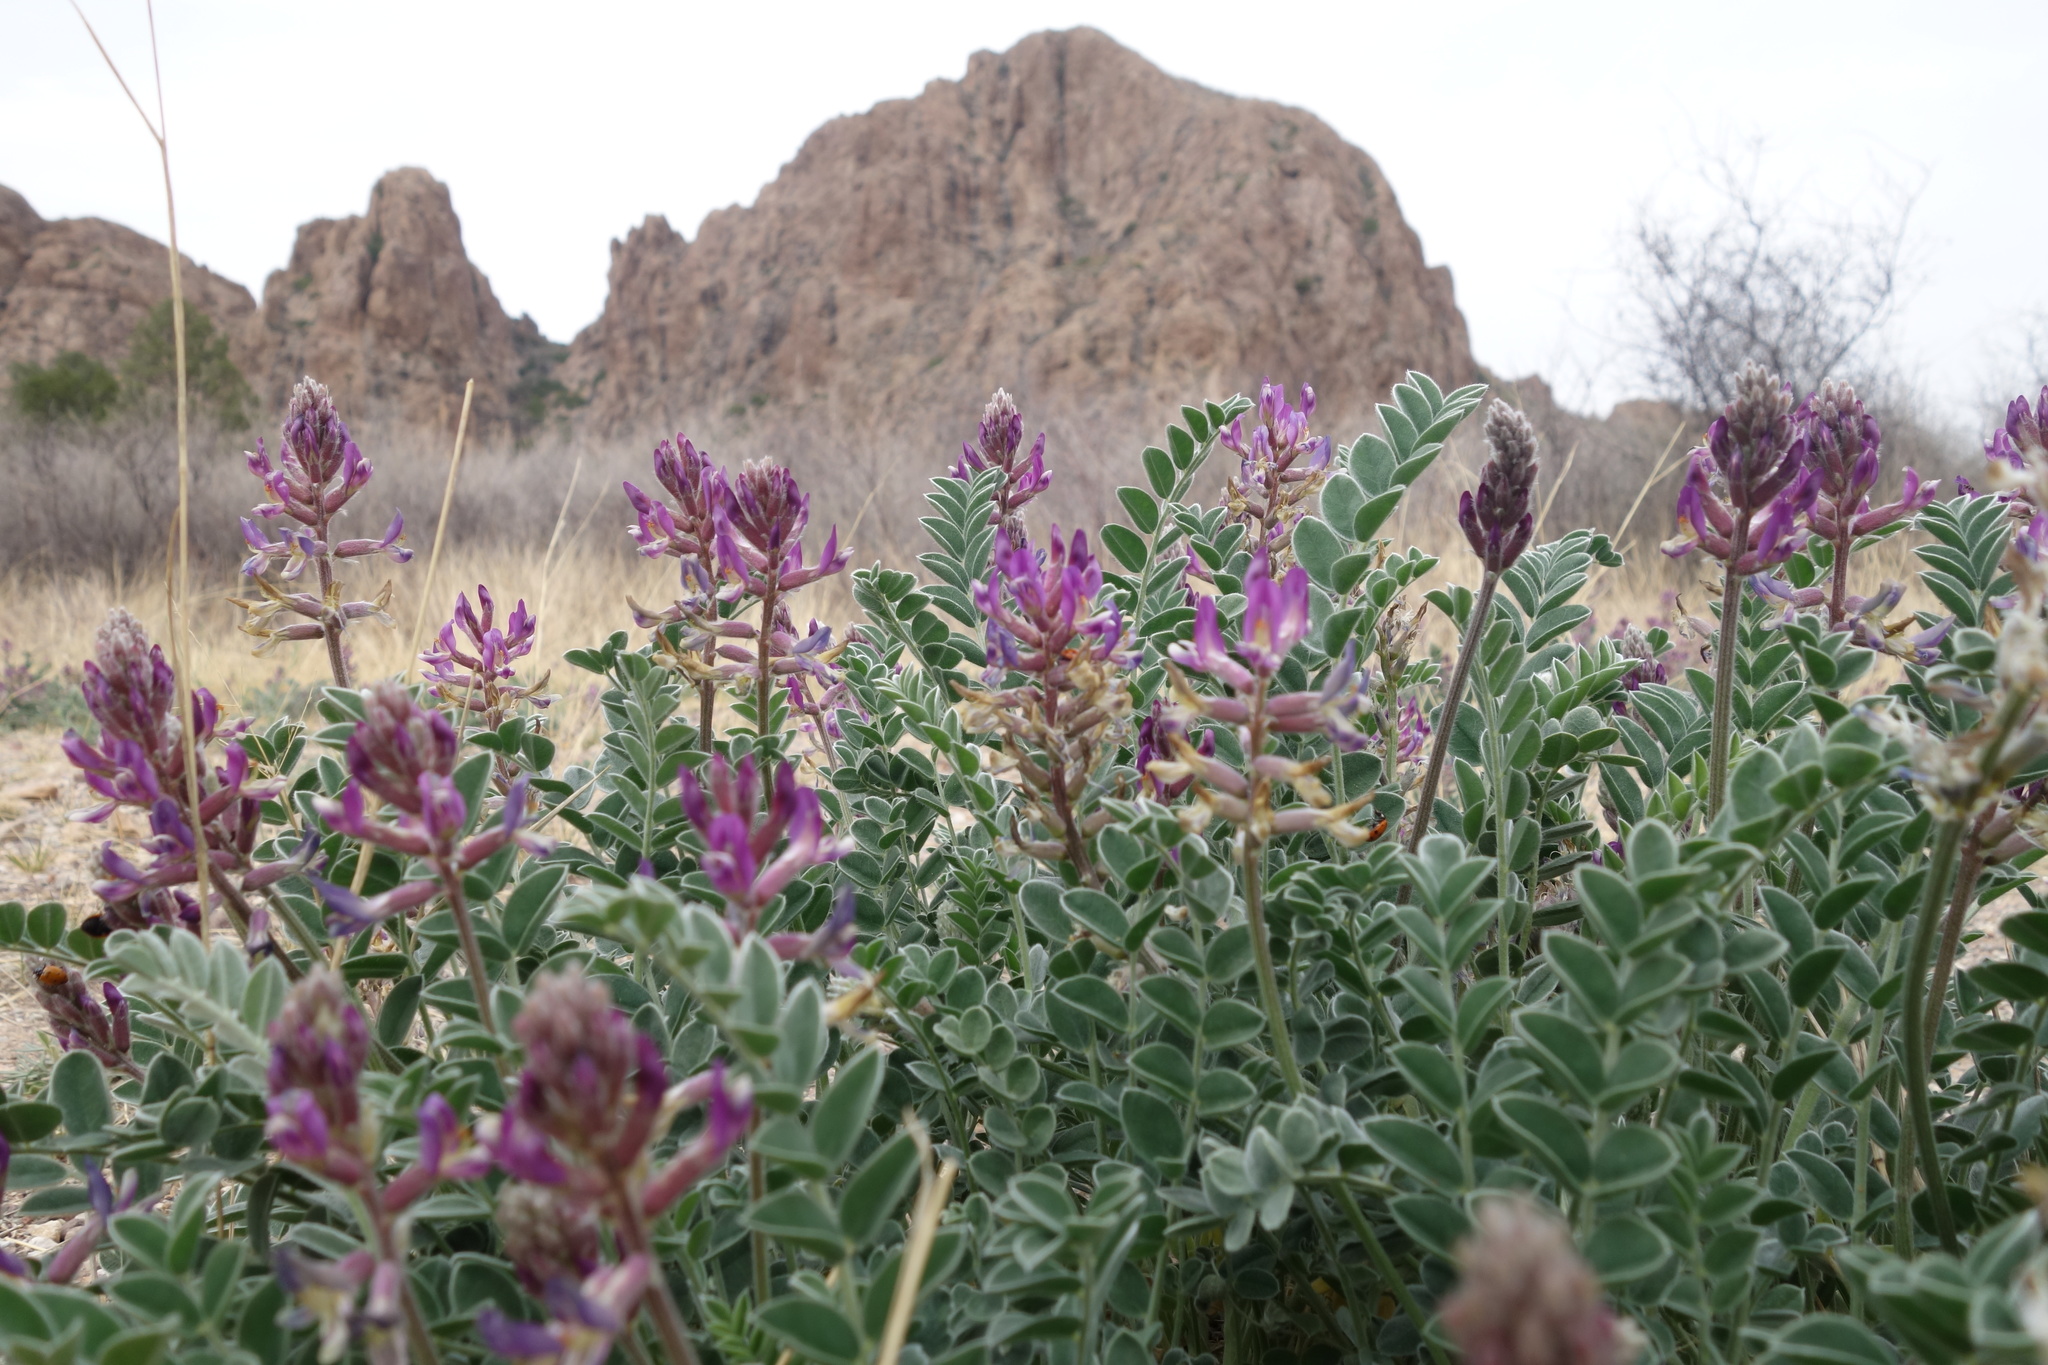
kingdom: Plantae
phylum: Tracheophyta
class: Magnoliopsida
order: Fabales
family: Fabaceae
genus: Astragalus
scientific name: Astragalus mollissimus
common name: Woolly locoweed
